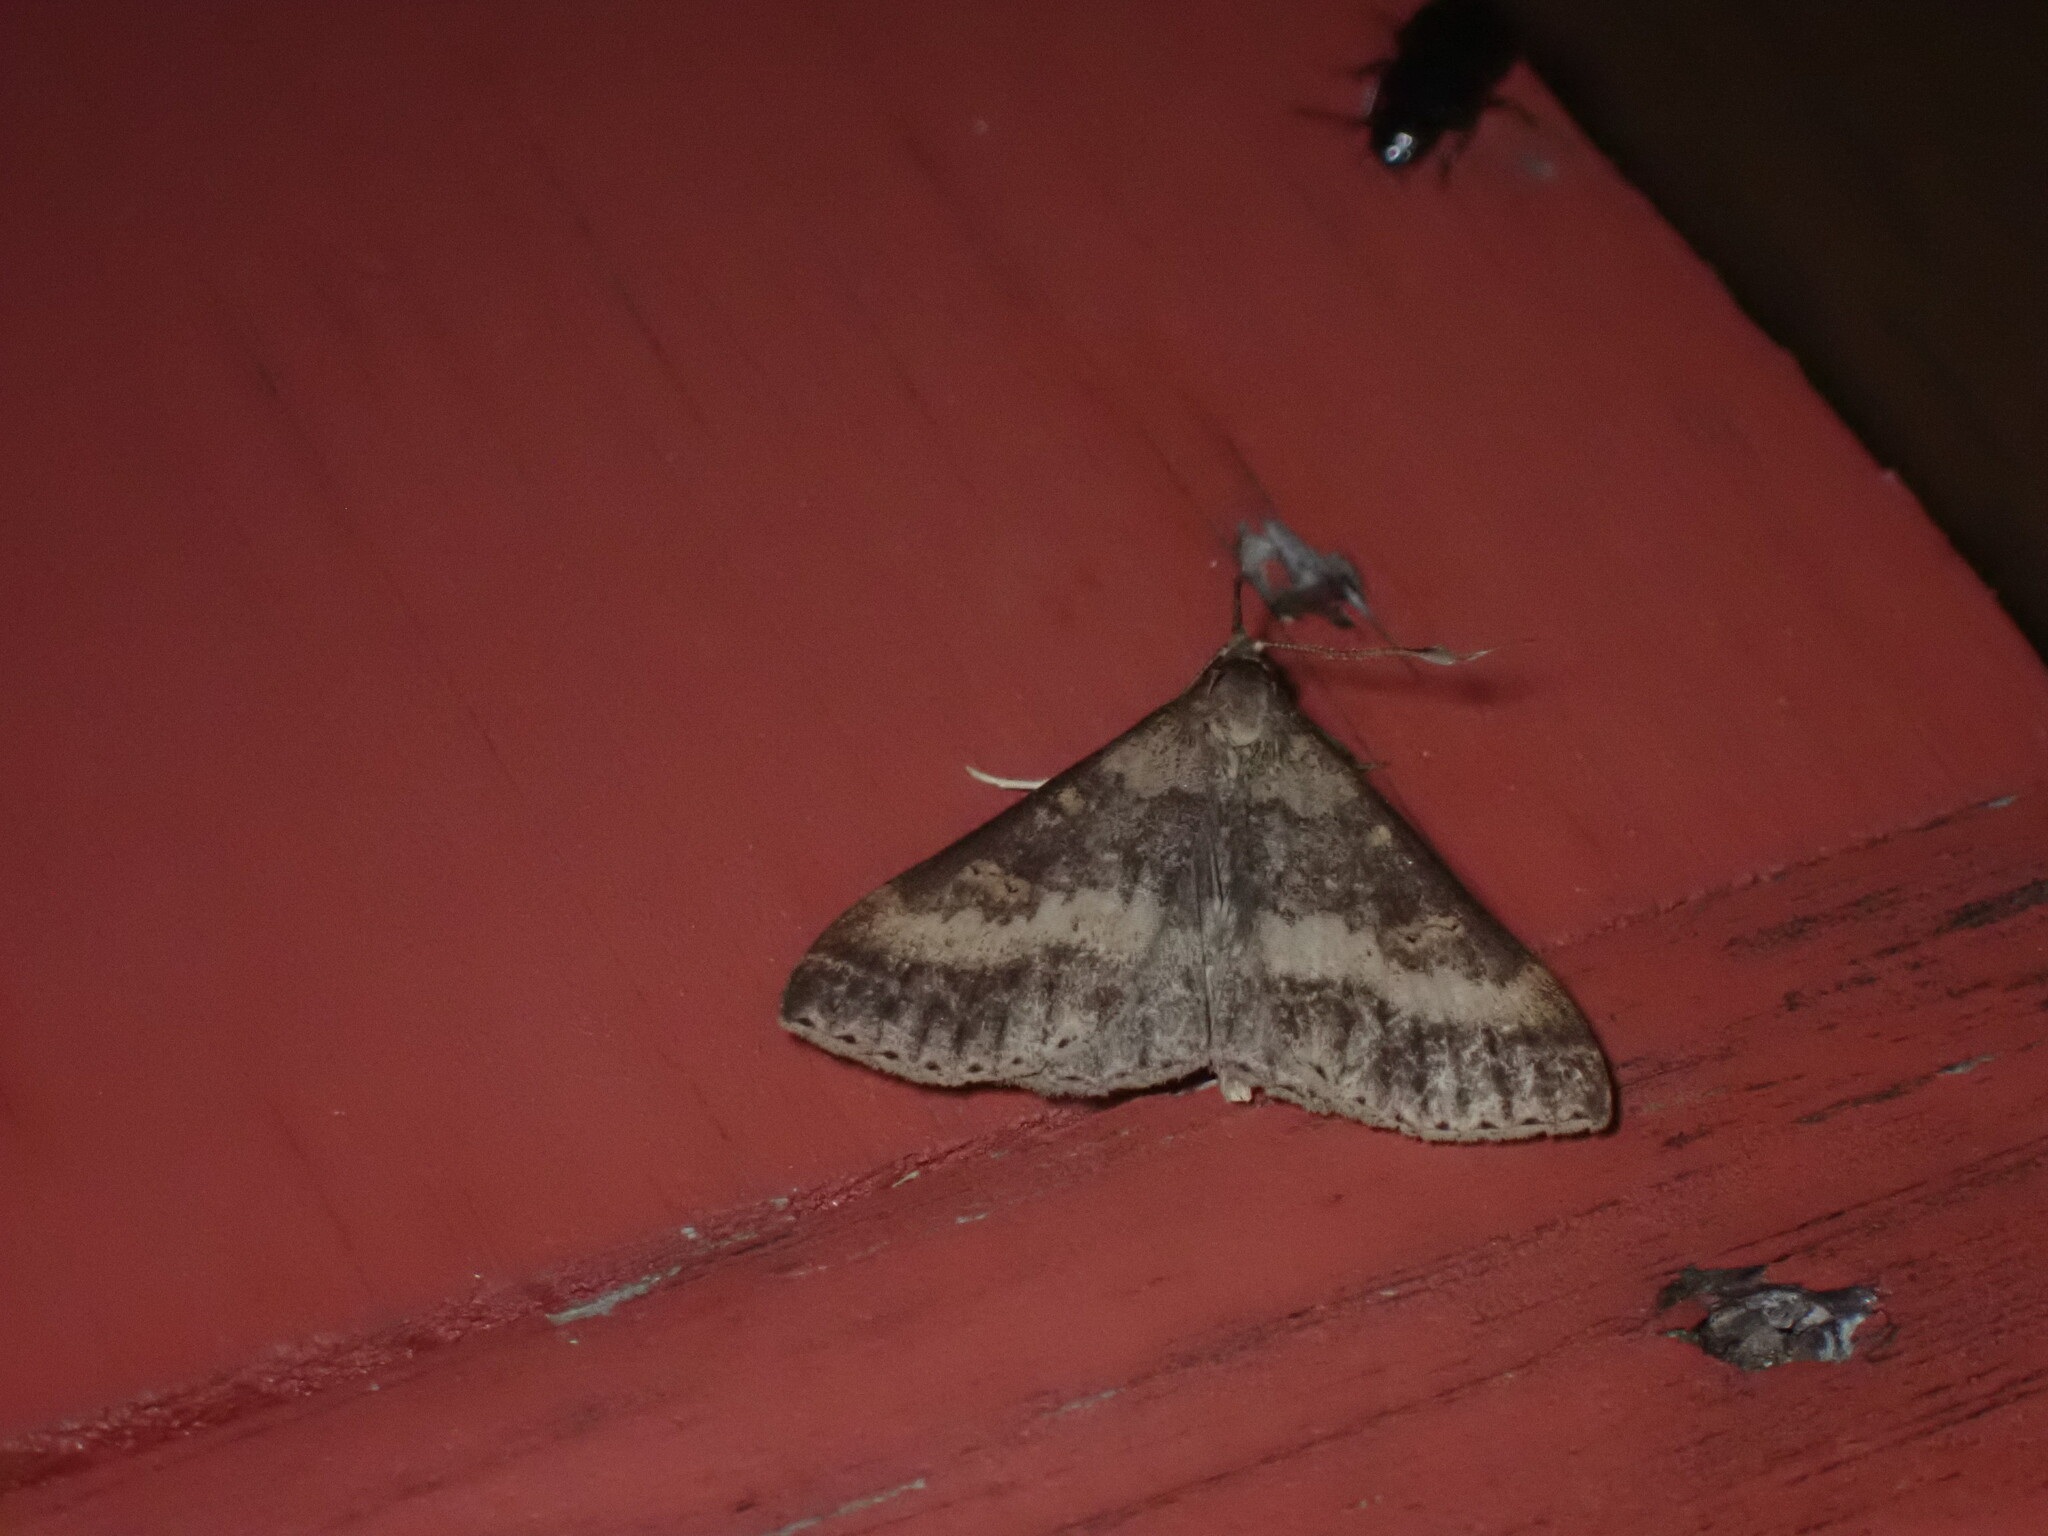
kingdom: Animalia
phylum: Arthropoda
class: Insecta
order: Lepidoptera
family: Erebidae
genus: Renia
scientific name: Renia discoloralis
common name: Discolored renia moth
